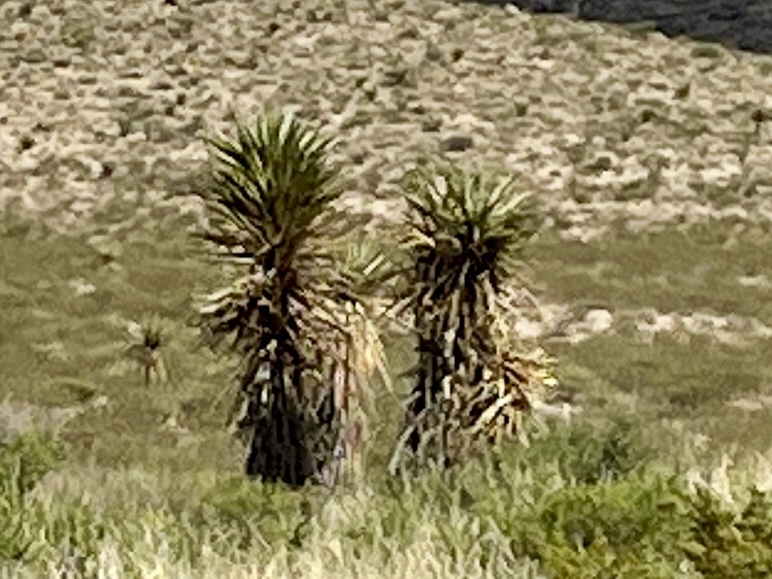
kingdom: Plantae
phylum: Tracheophyta
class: Liliopsida
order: Asparagales
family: Asparagaceae
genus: Yucca
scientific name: Yucca treculiana
